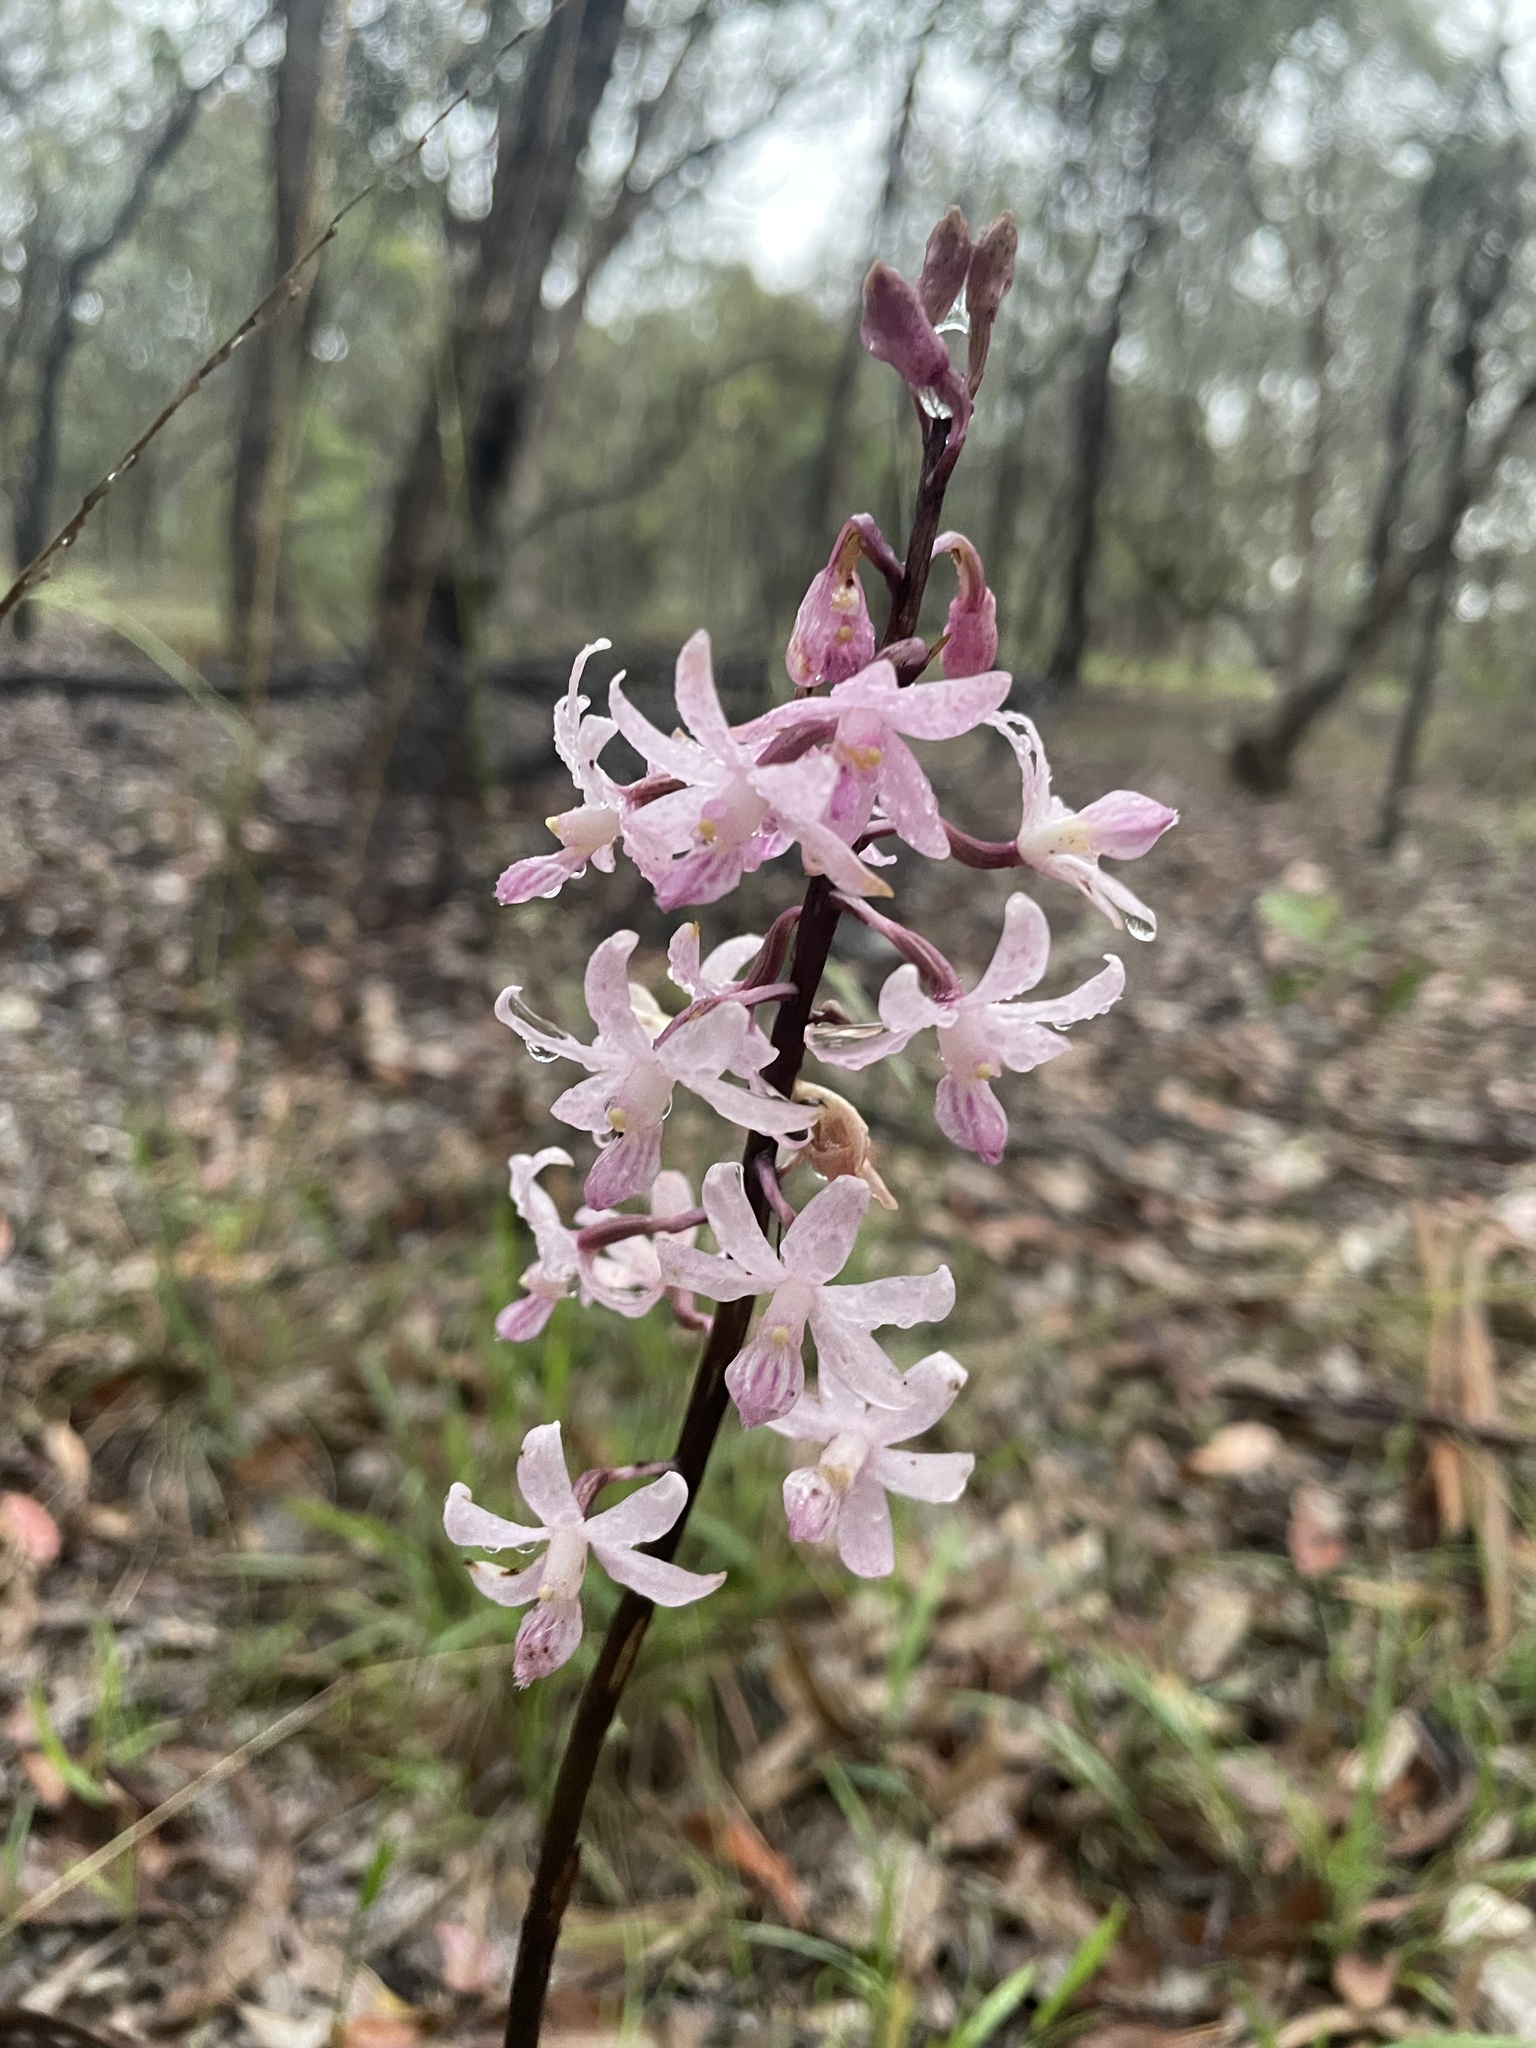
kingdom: Plantae
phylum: Tracheophyta
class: Liliopsida
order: Asparagales
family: Orchidaceae
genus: Dipodium
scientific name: Dipodium roseum
